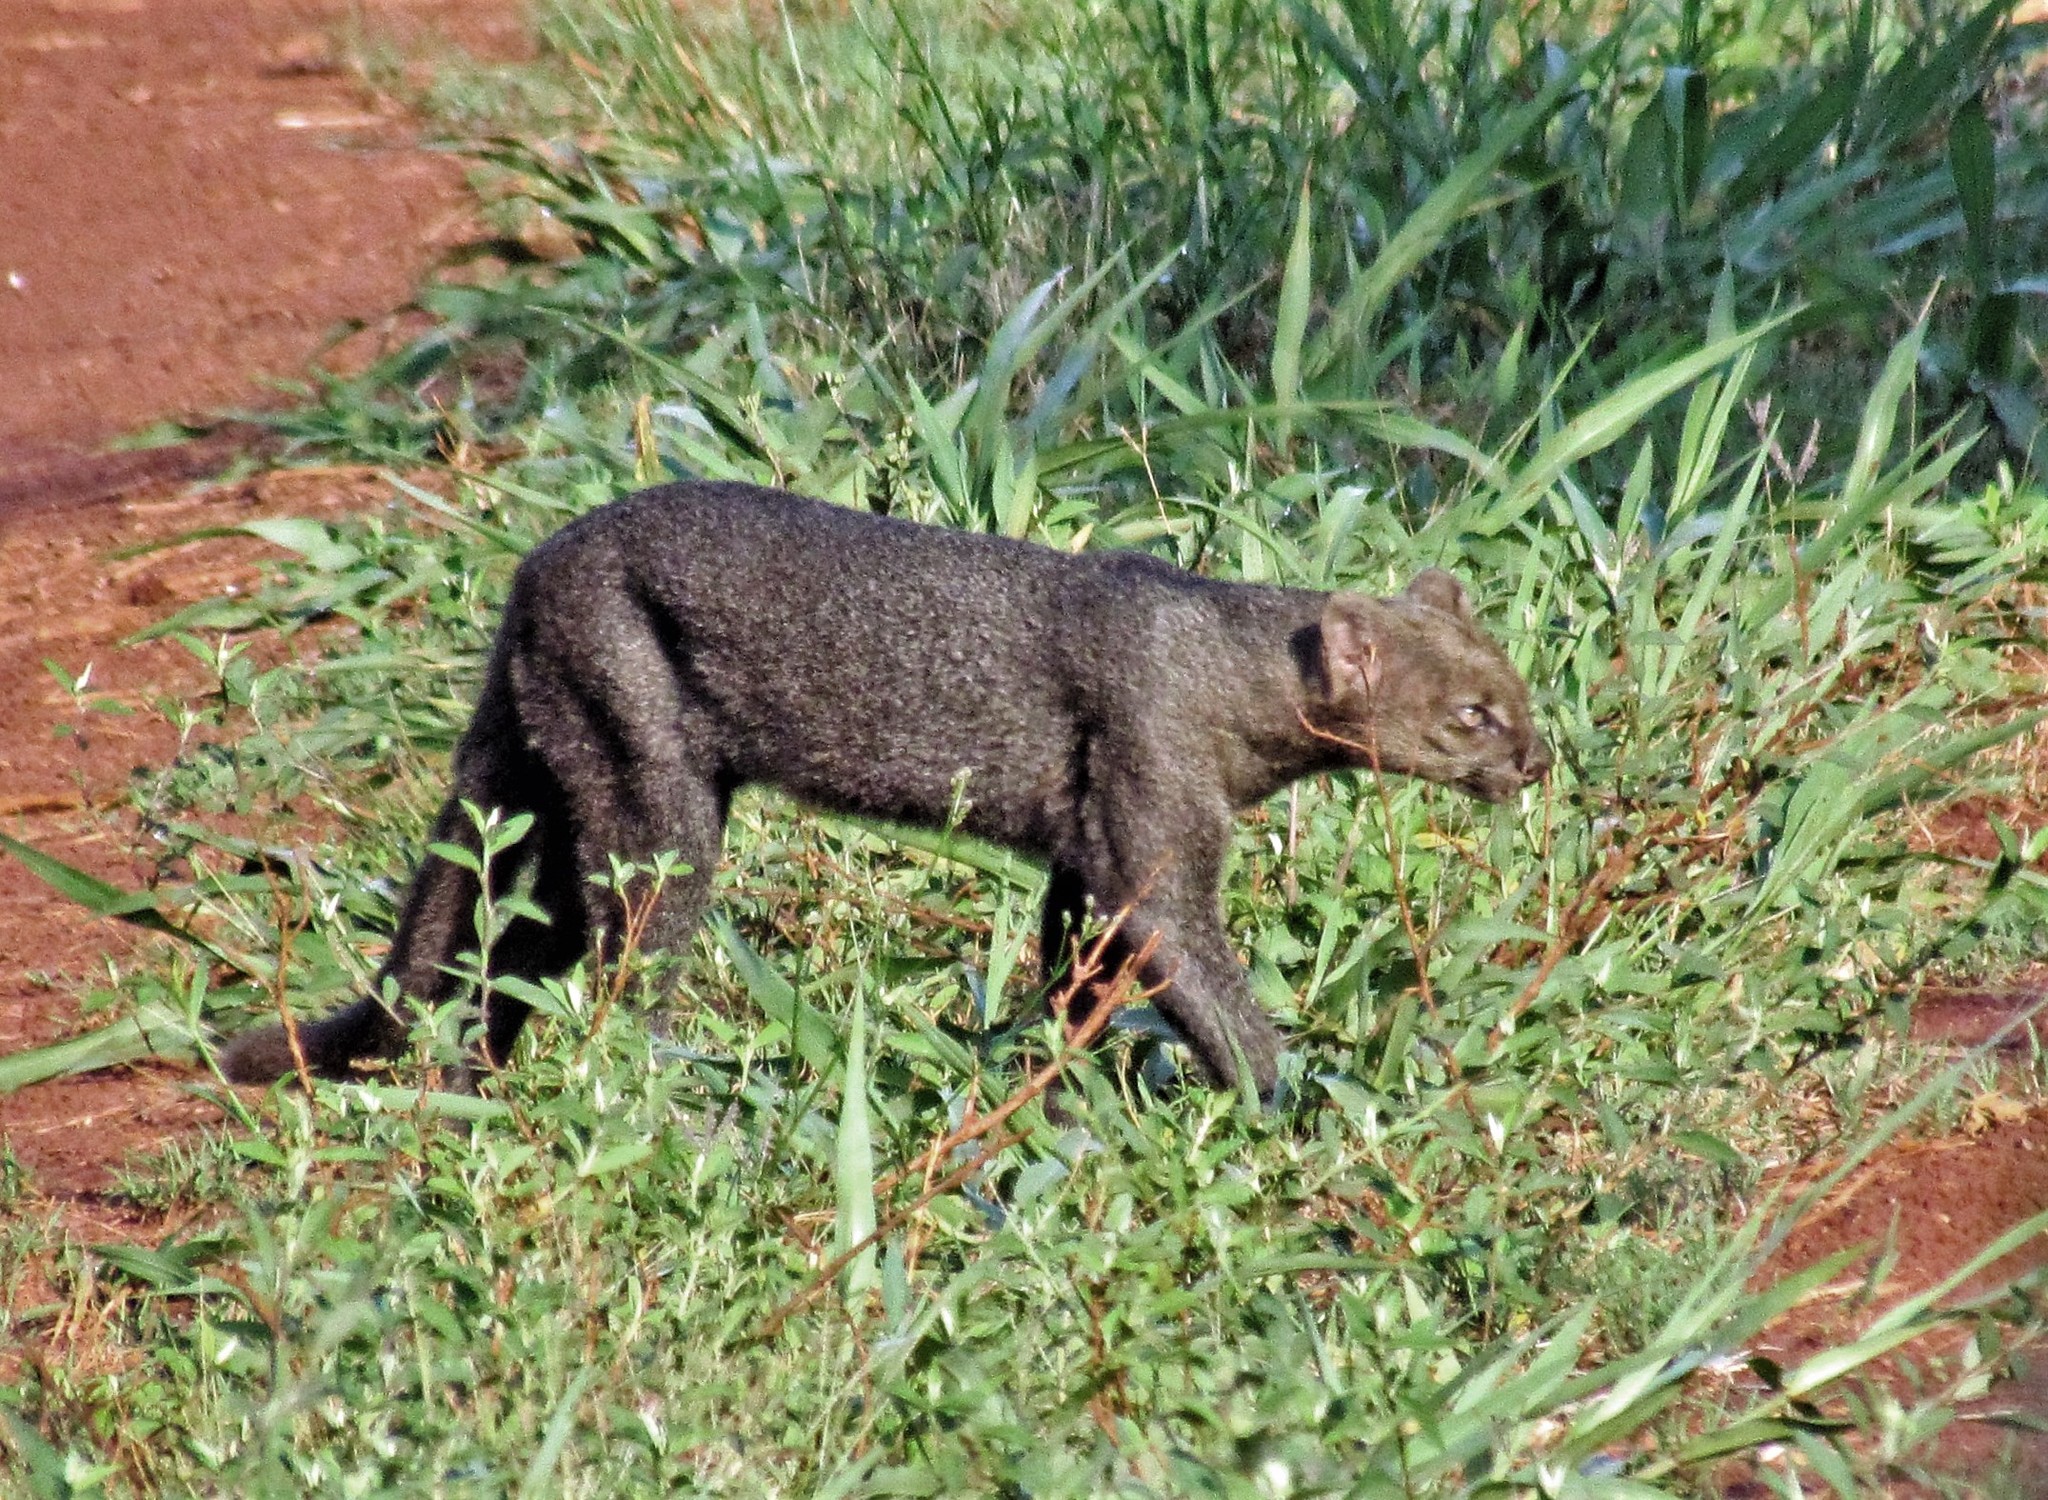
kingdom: Animalia
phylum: Chordata
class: Mammalia
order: Carnivora
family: Felidae
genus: Puma
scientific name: Puma yagouaroundi
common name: Jaguarundi
